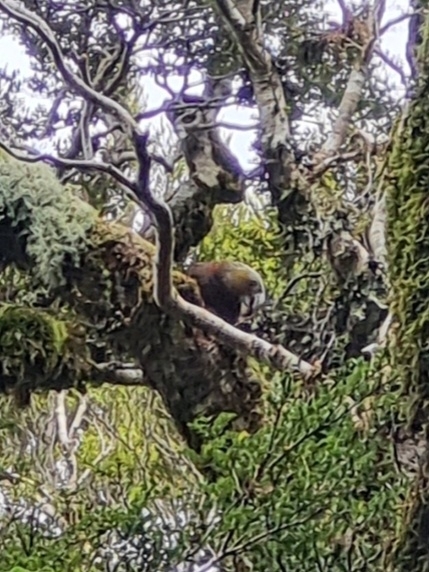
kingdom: Animalia
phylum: Chordata
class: Aves
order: Psittaciformes
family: Psittacidae
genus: Nestor
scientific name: Nestor meridionalis
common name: New zealand kaka
